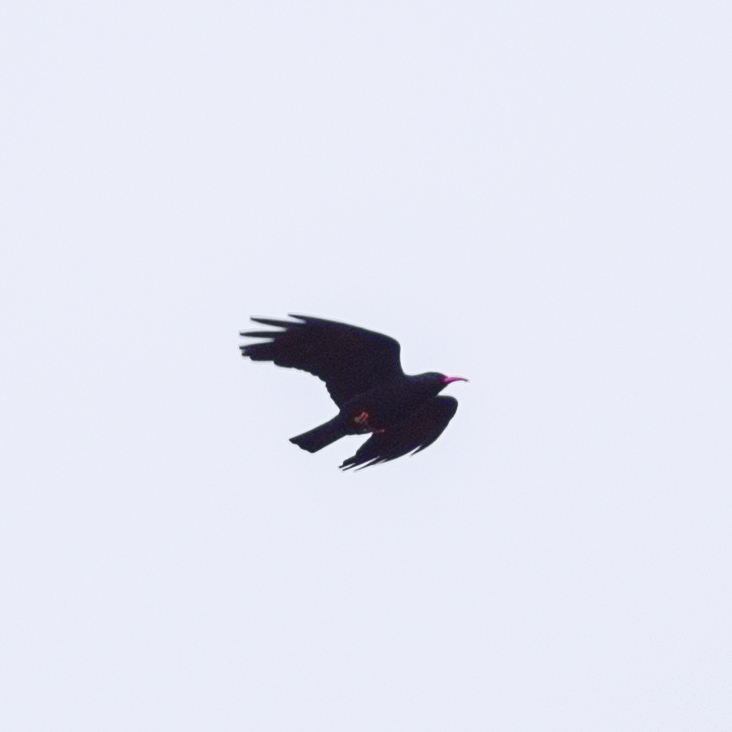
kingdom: Animalia
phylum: Chordata
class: Aves
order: Passeriformes
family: Corvidae
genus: Pyrrhocorax
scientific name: Pyrrhocorax pyrrhocorax
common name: Red-billed chough
